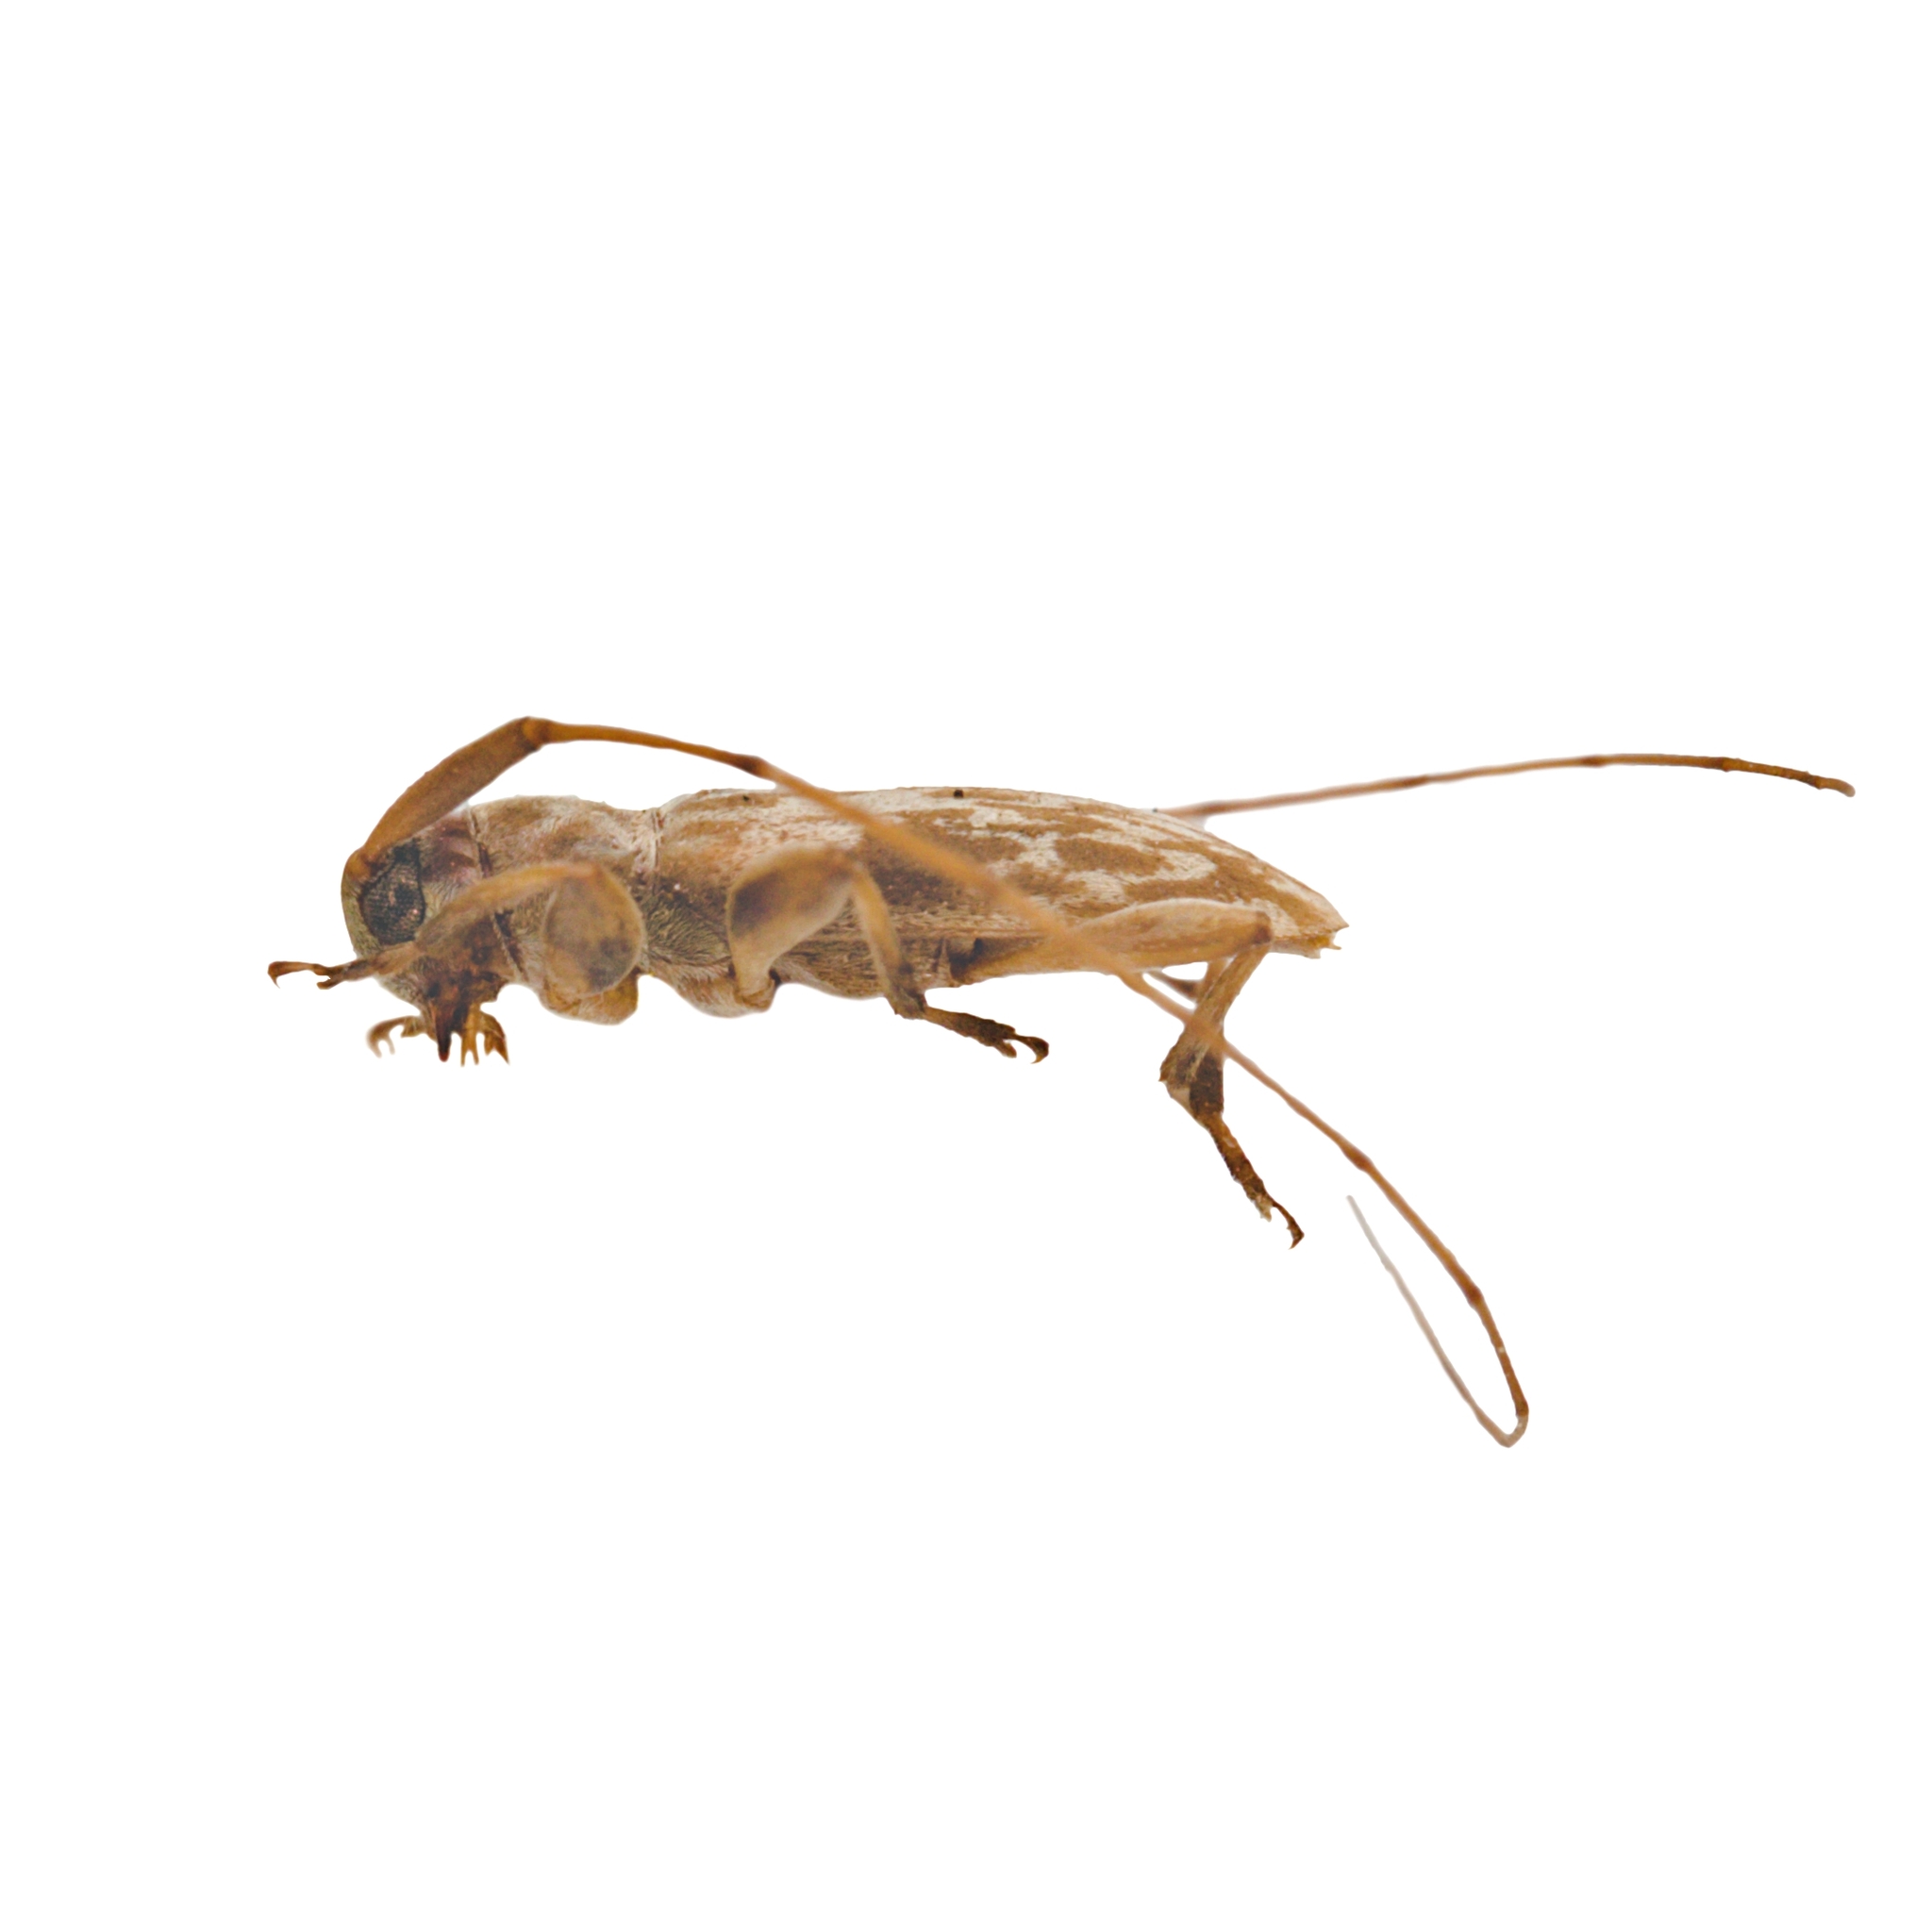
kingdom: Animalia
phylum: Arthropoda
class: Insecta
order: Coleoptera
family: Cerambycidae
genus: Urgleptes
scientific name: Urgleptes celtis
